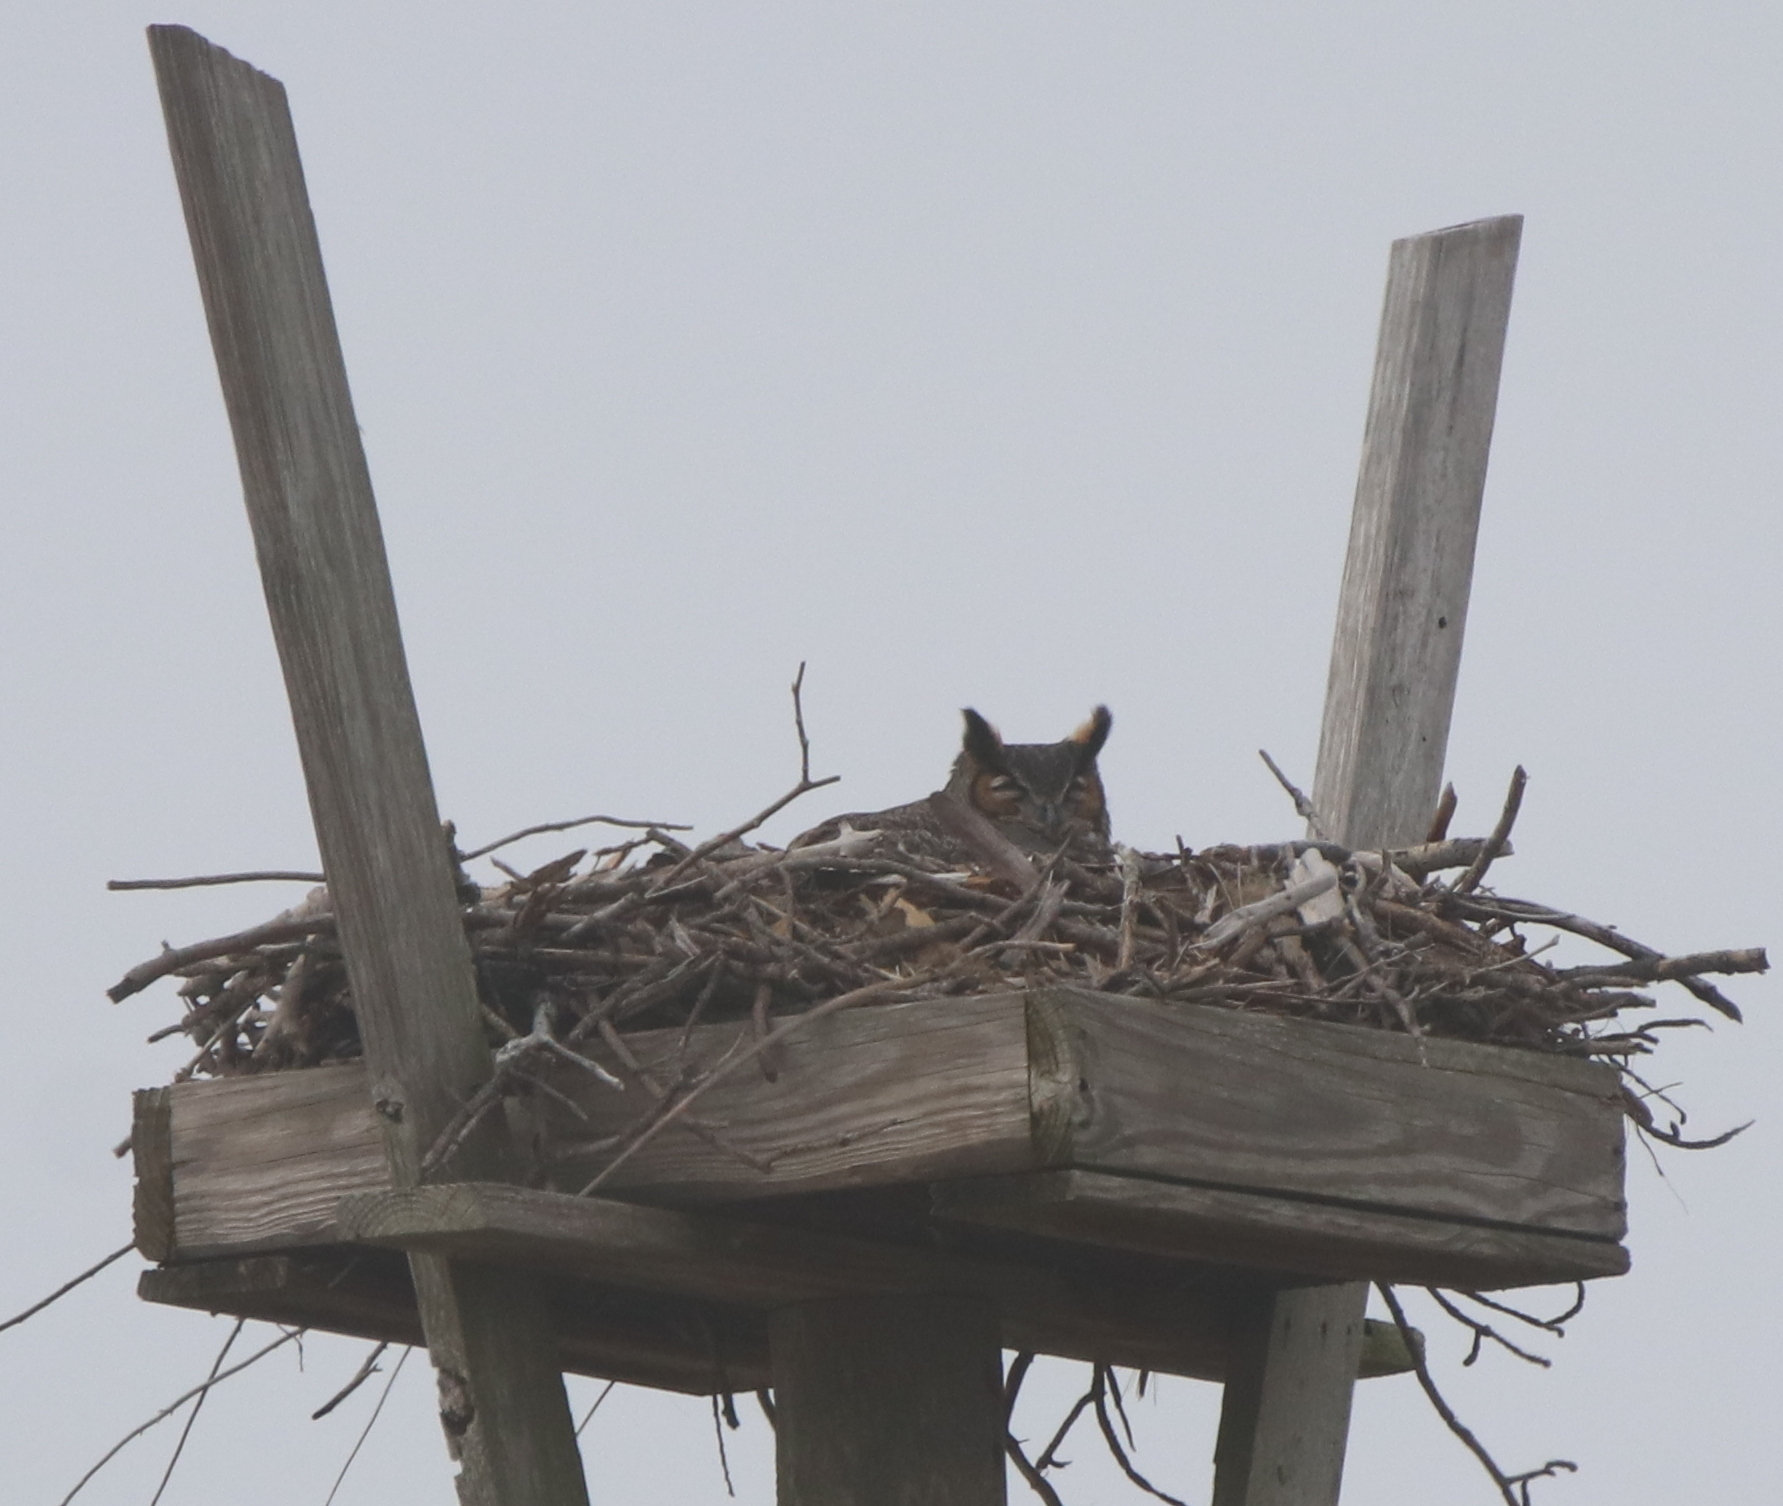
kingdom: Animalia
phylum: Chordata
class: Aves
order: Strigiformes
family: Strigidae
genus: Bubo
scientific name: Bubo virginianus
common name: Great horned owl
